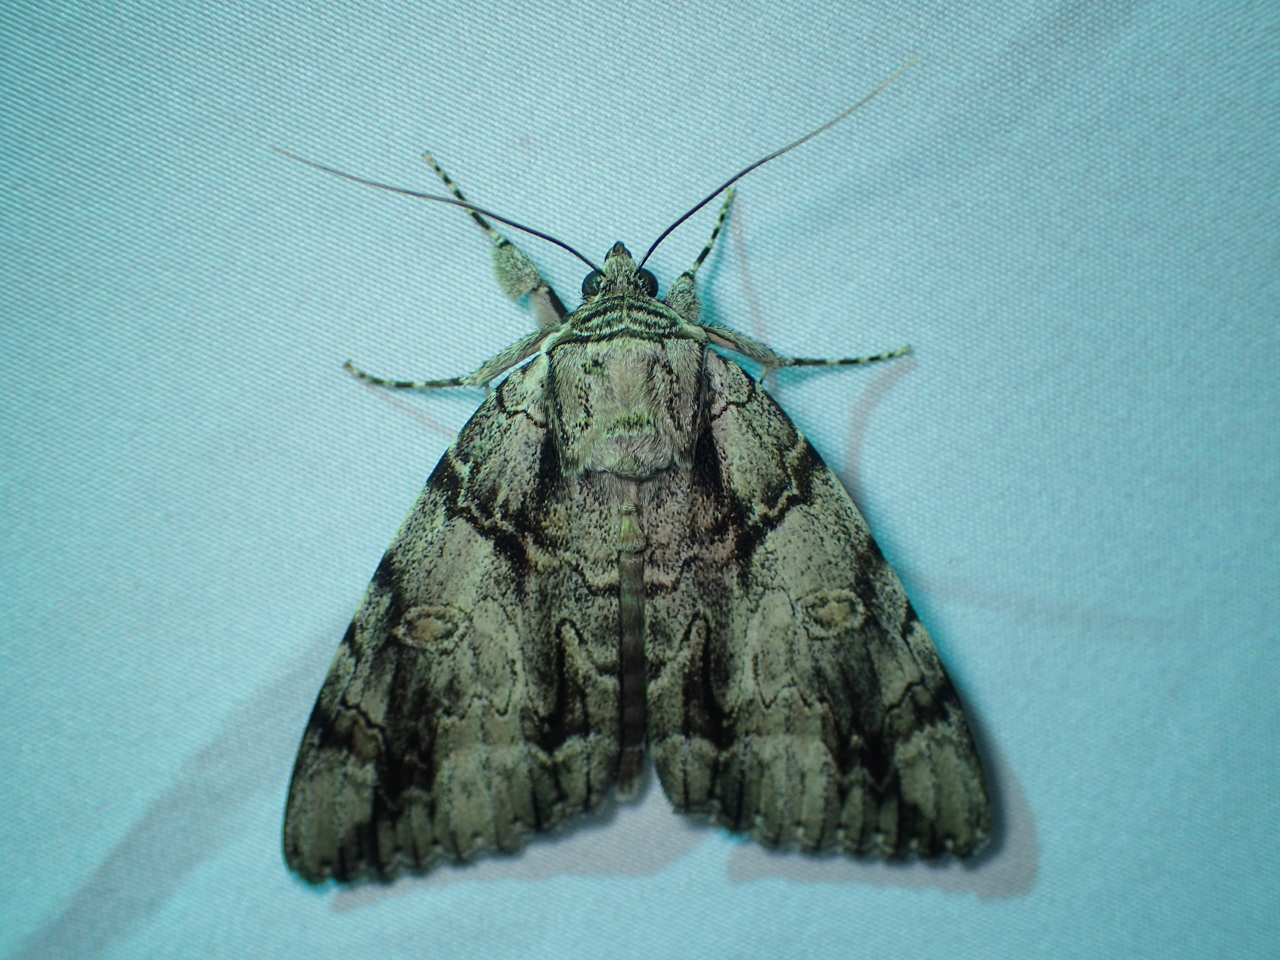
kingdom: Animalia
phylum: Arthropoda
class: Insecta
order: Lepidoptera
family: Erebidae
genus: Catocala
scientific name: Catocala vidua
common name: The widow
